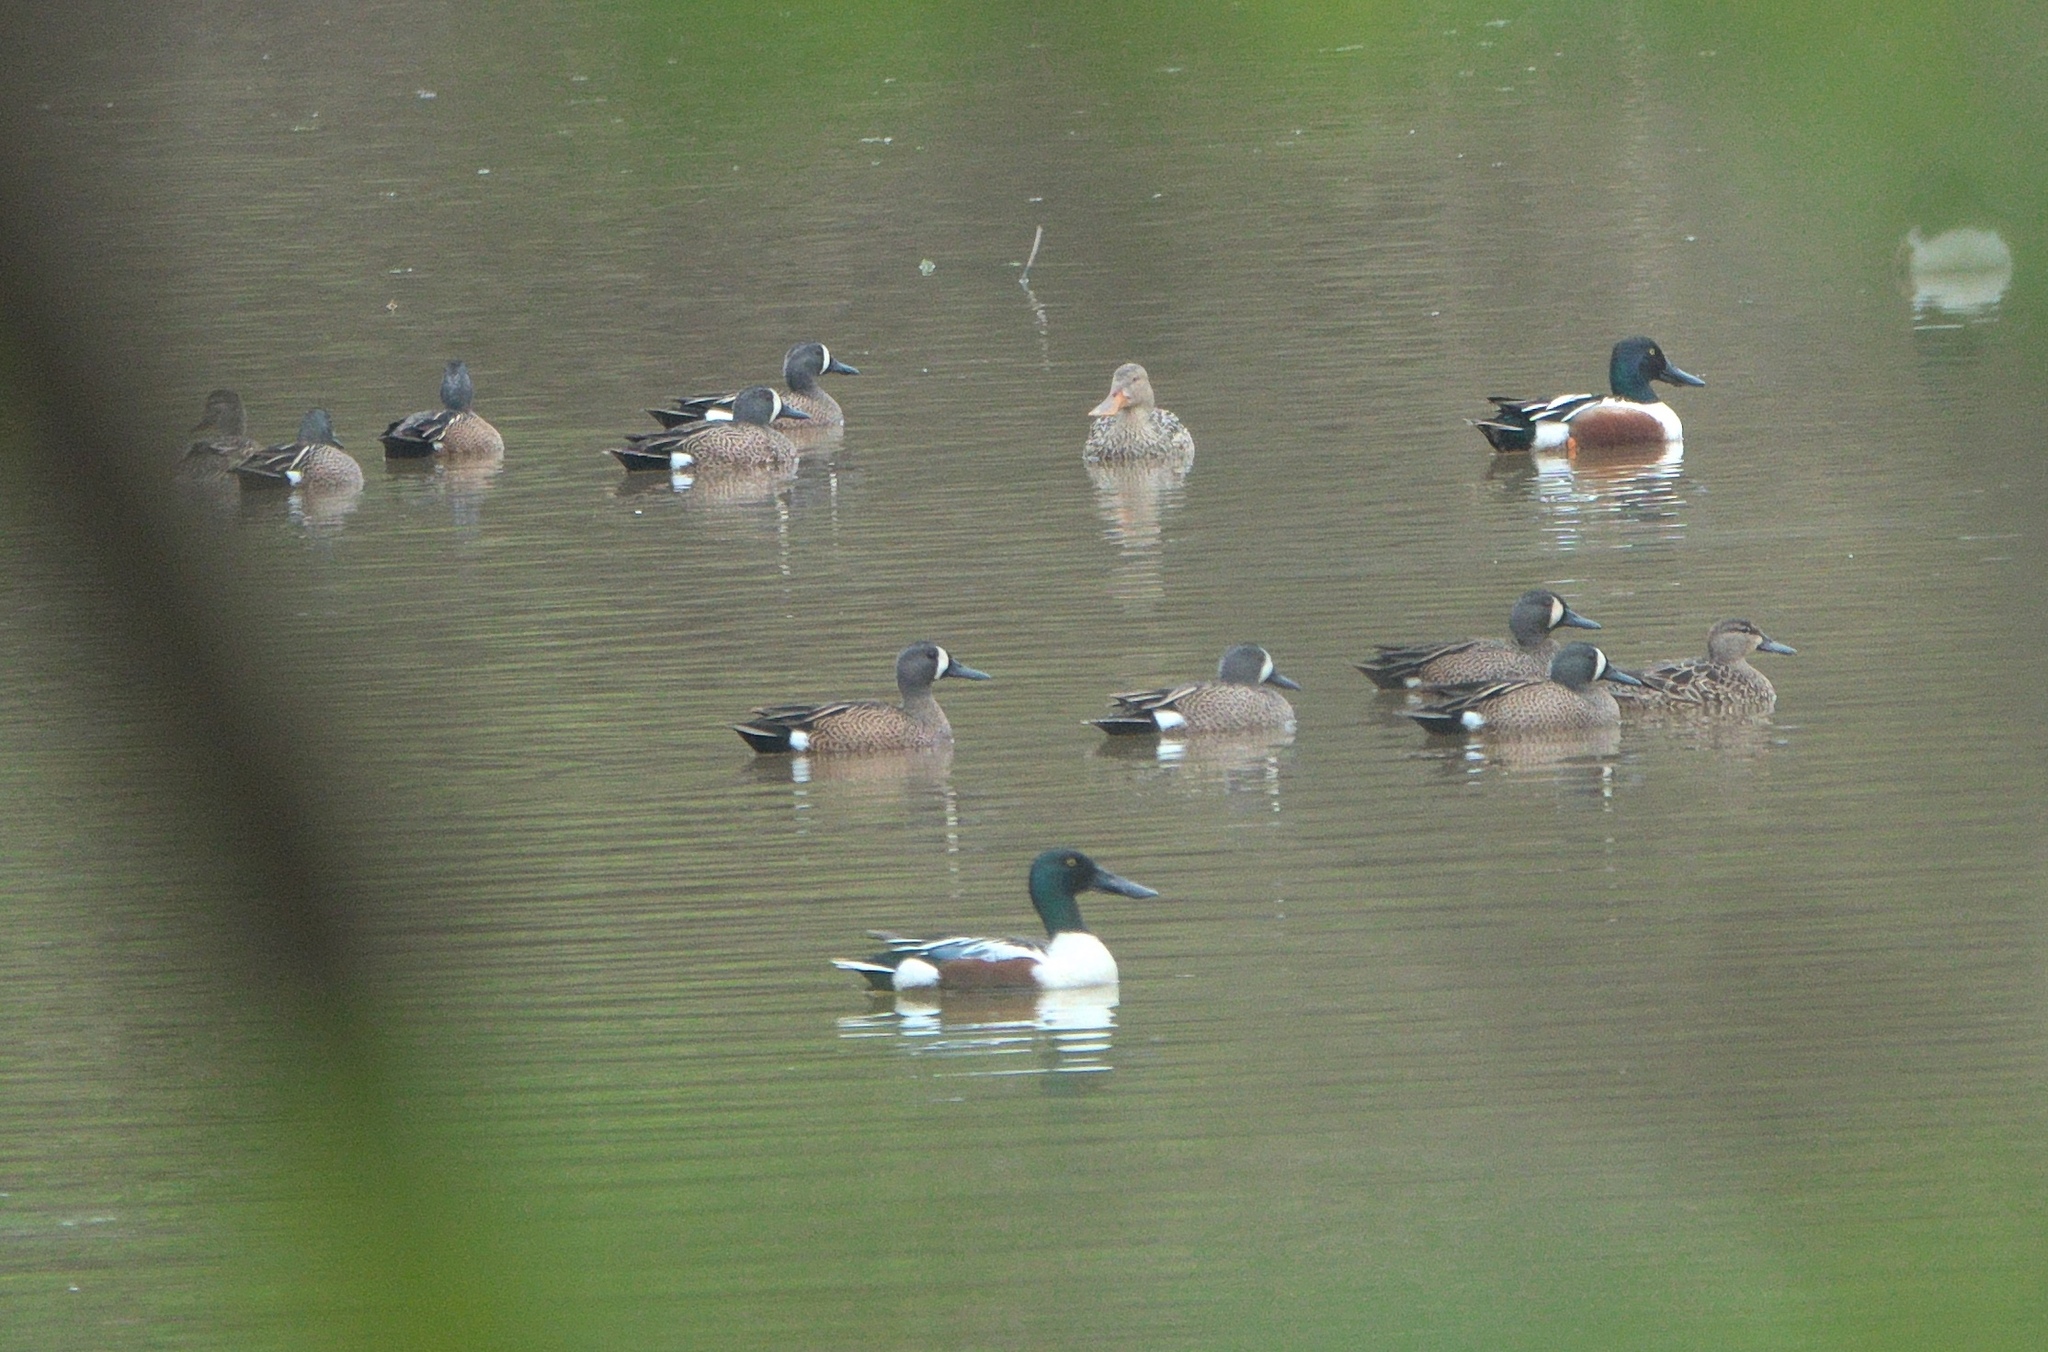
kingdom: Animalia
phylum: Chordata
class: Aves
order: Anseriformes
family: Anatidae
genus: Spatula
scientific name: Spatula discors
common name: Blue-winged teal
